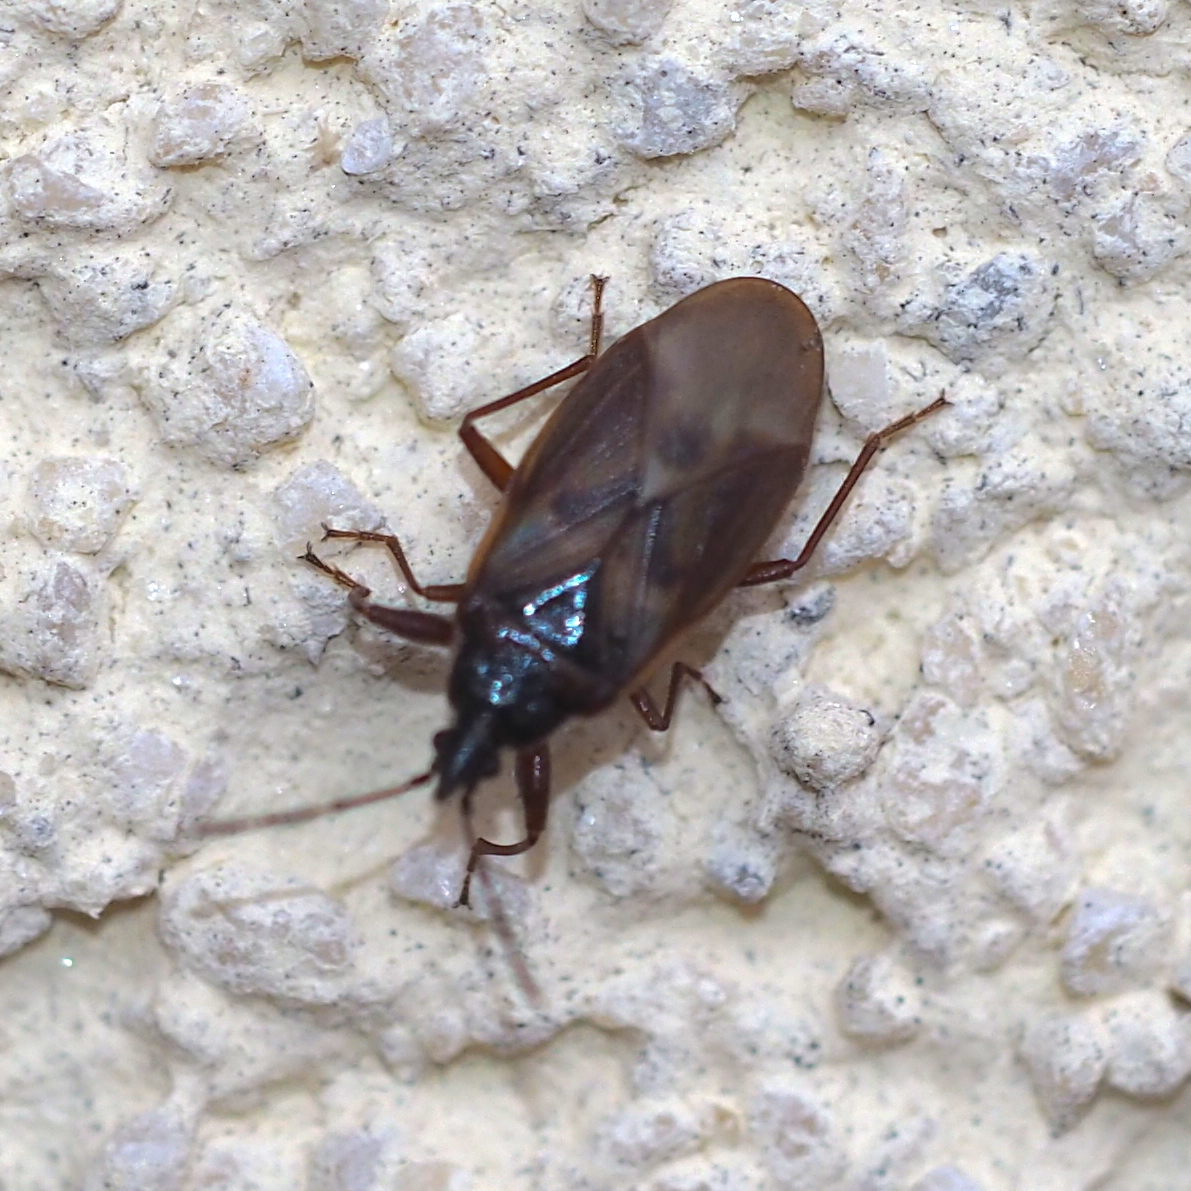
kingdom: Animalia
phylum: Arthropoda
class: Insecta
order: Hemiptera
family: Rhyparochromidae
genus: Gastrodes
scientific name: Gastrodes abietum
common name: Spruce cone bug
